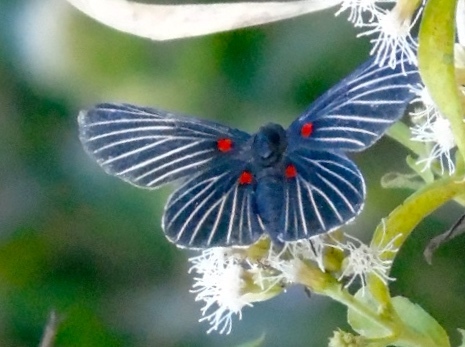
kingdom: Animalia
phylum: Arthropoda
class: Insecta
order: Lepidoptera
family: Lycaenidae
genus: Melanis
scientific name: Melanis
